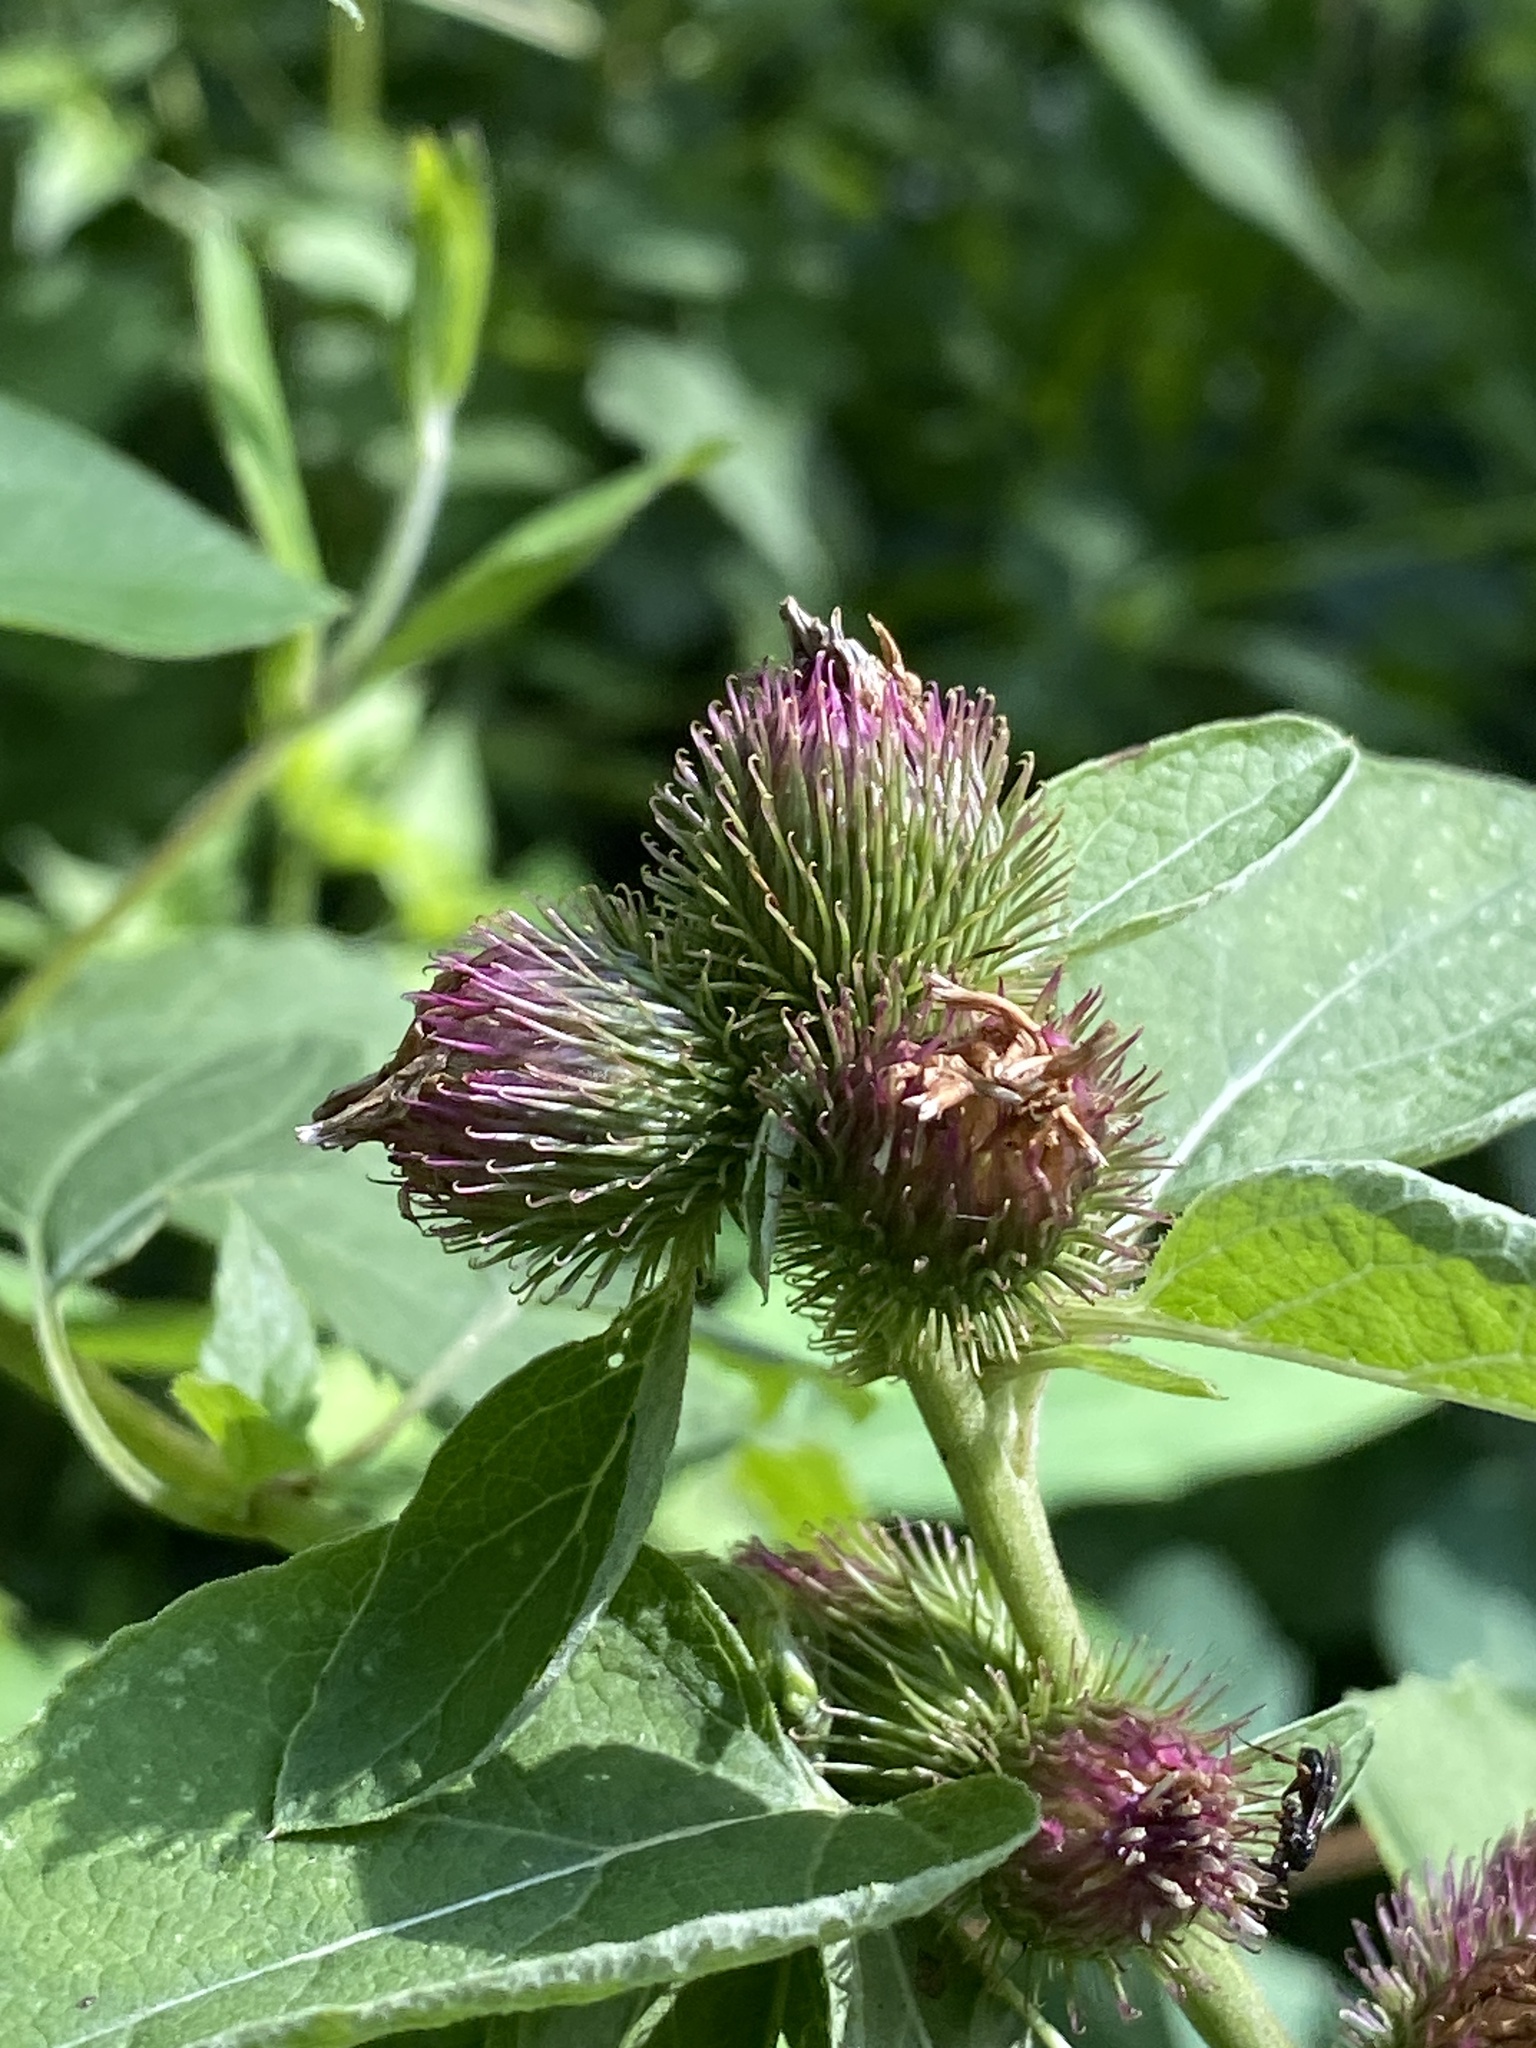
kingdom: Plantae
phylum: Tracheophyta
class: Magnoliopsida
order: Asterales
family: Asteraceae
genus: Arctium
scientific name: Arctium minus
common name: Lesser burdock
